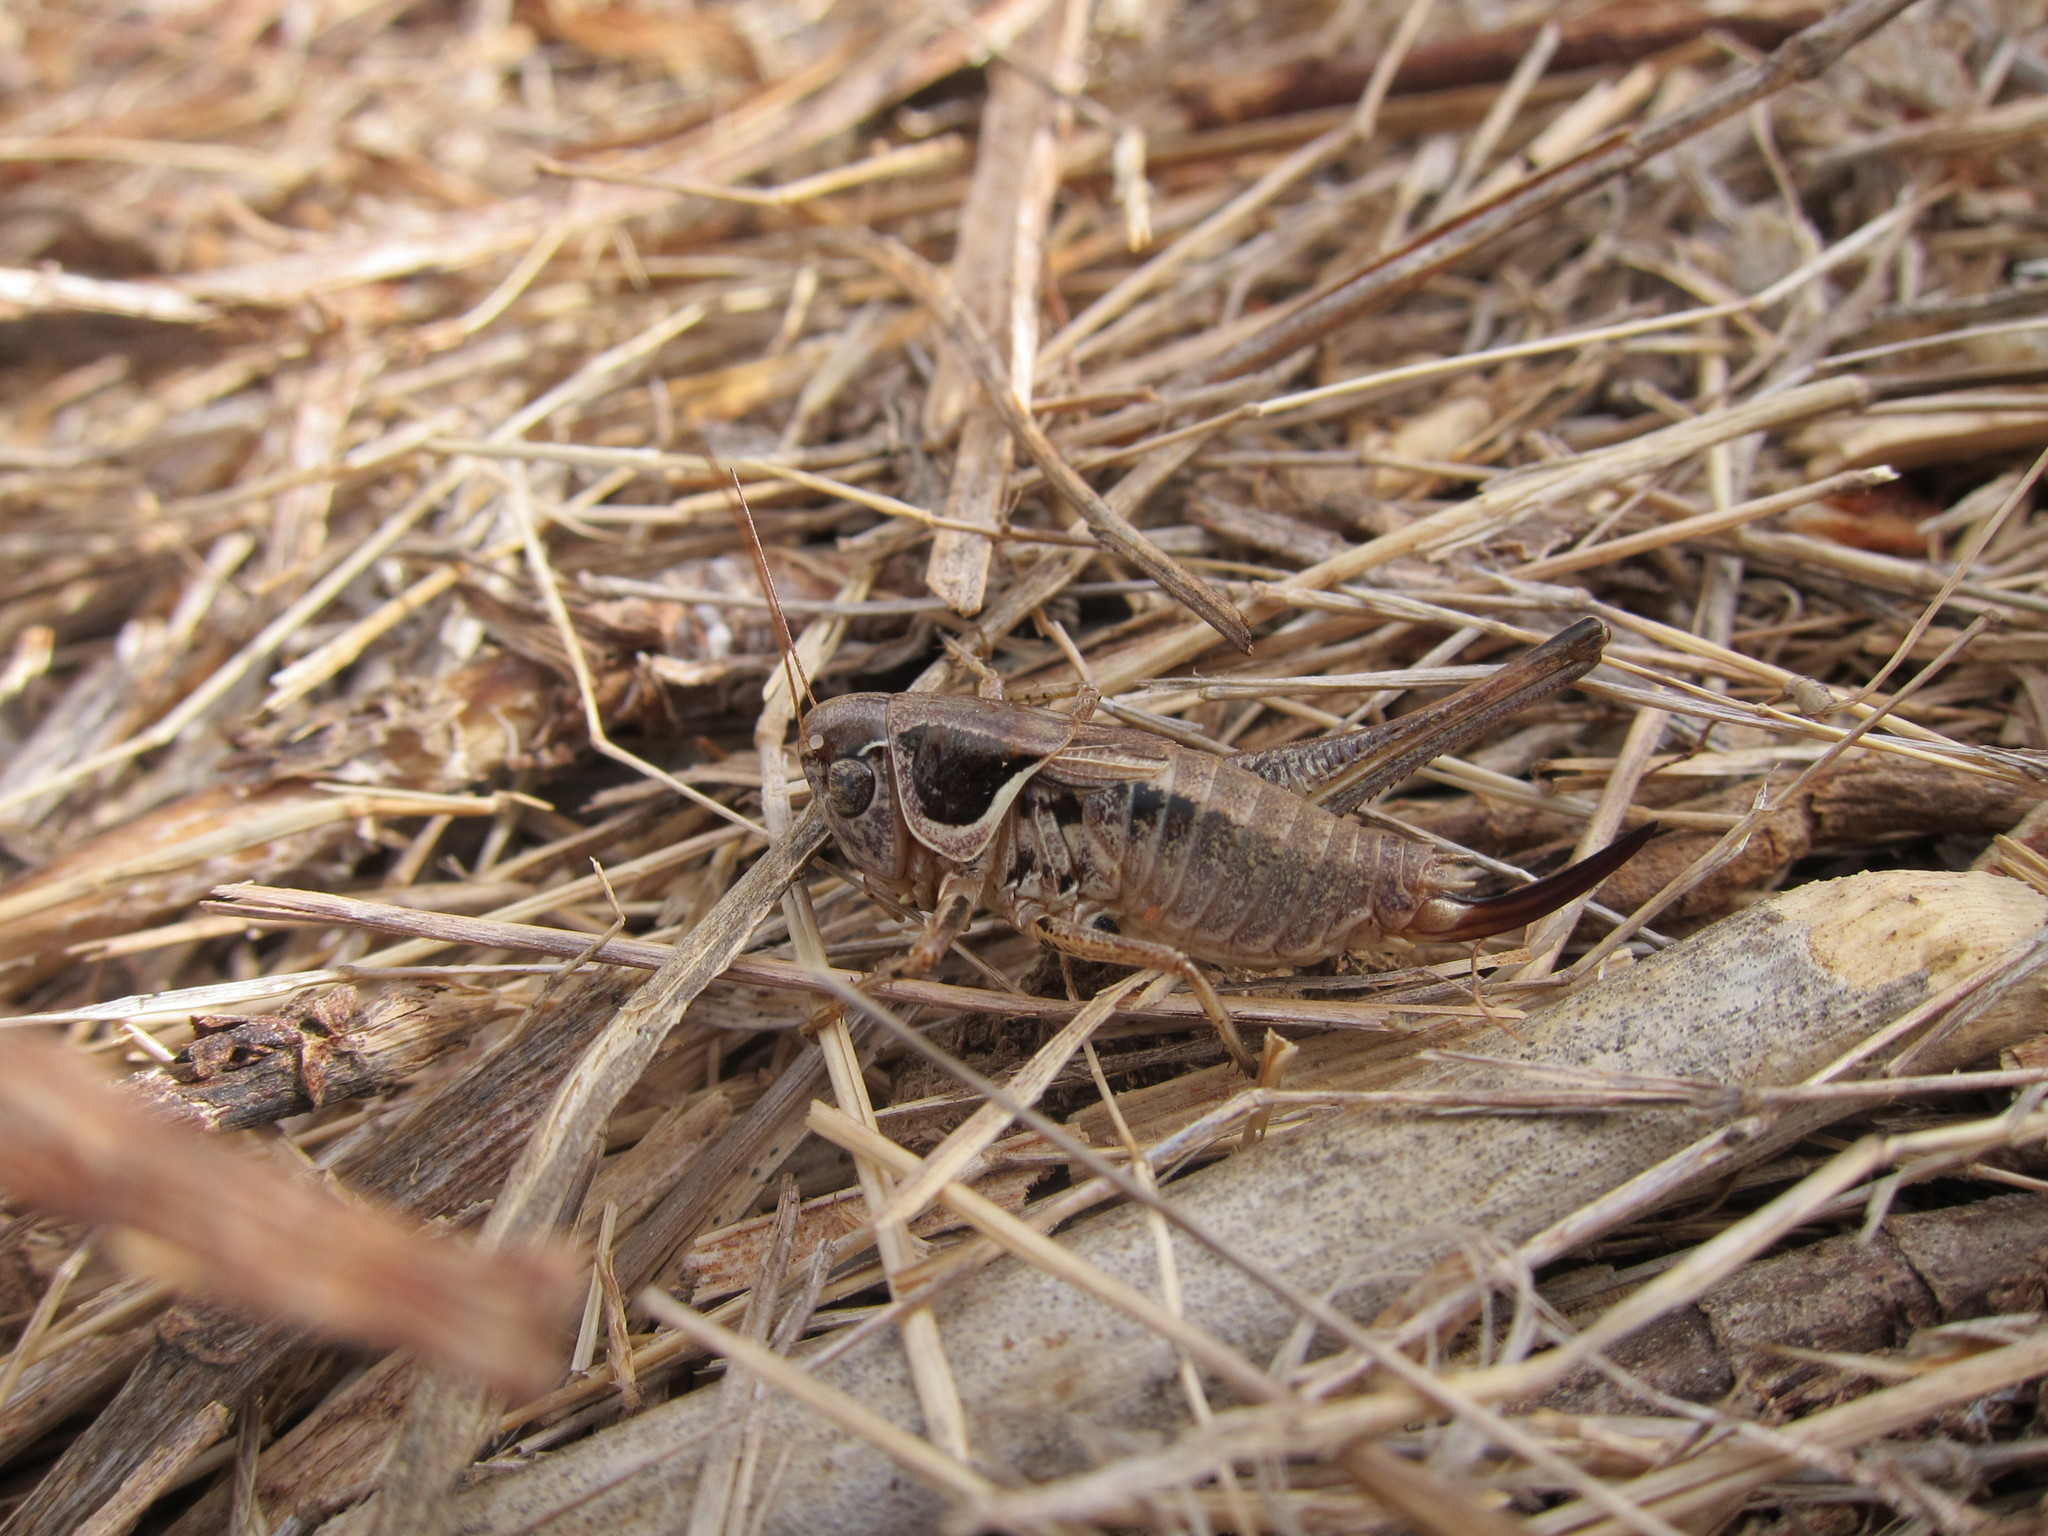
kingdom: Animalia
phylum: Arthropoda
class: Insecta
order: Orthoptera
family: Tettigoniidae
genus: Incertana
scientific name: Incertana decorata
